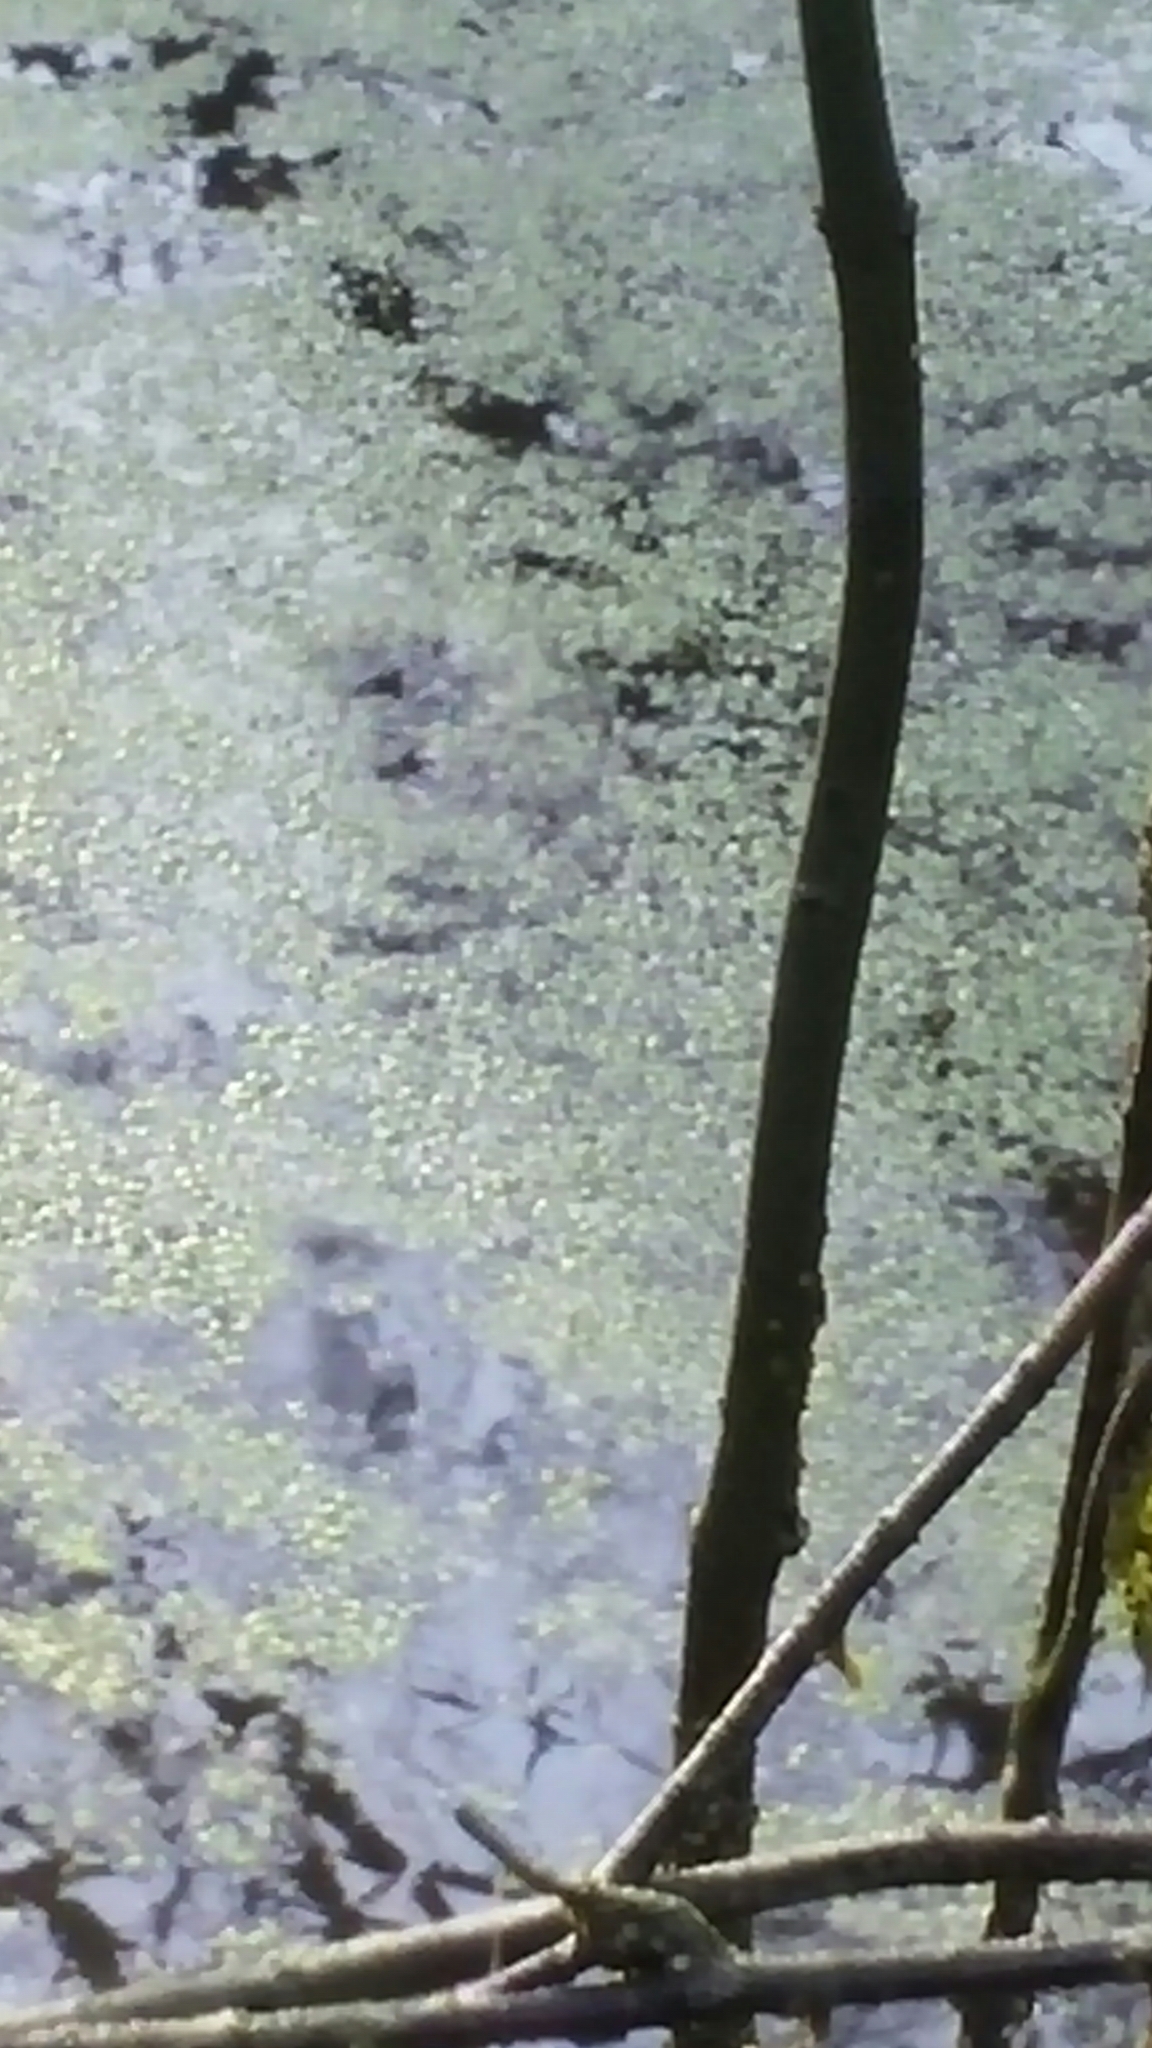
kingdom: Plantae
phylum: Tracheophyta
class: Liliopsida
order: Alismatales
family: Araceae
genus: Lemna
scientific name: Lemna minor
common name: Common duckweed
